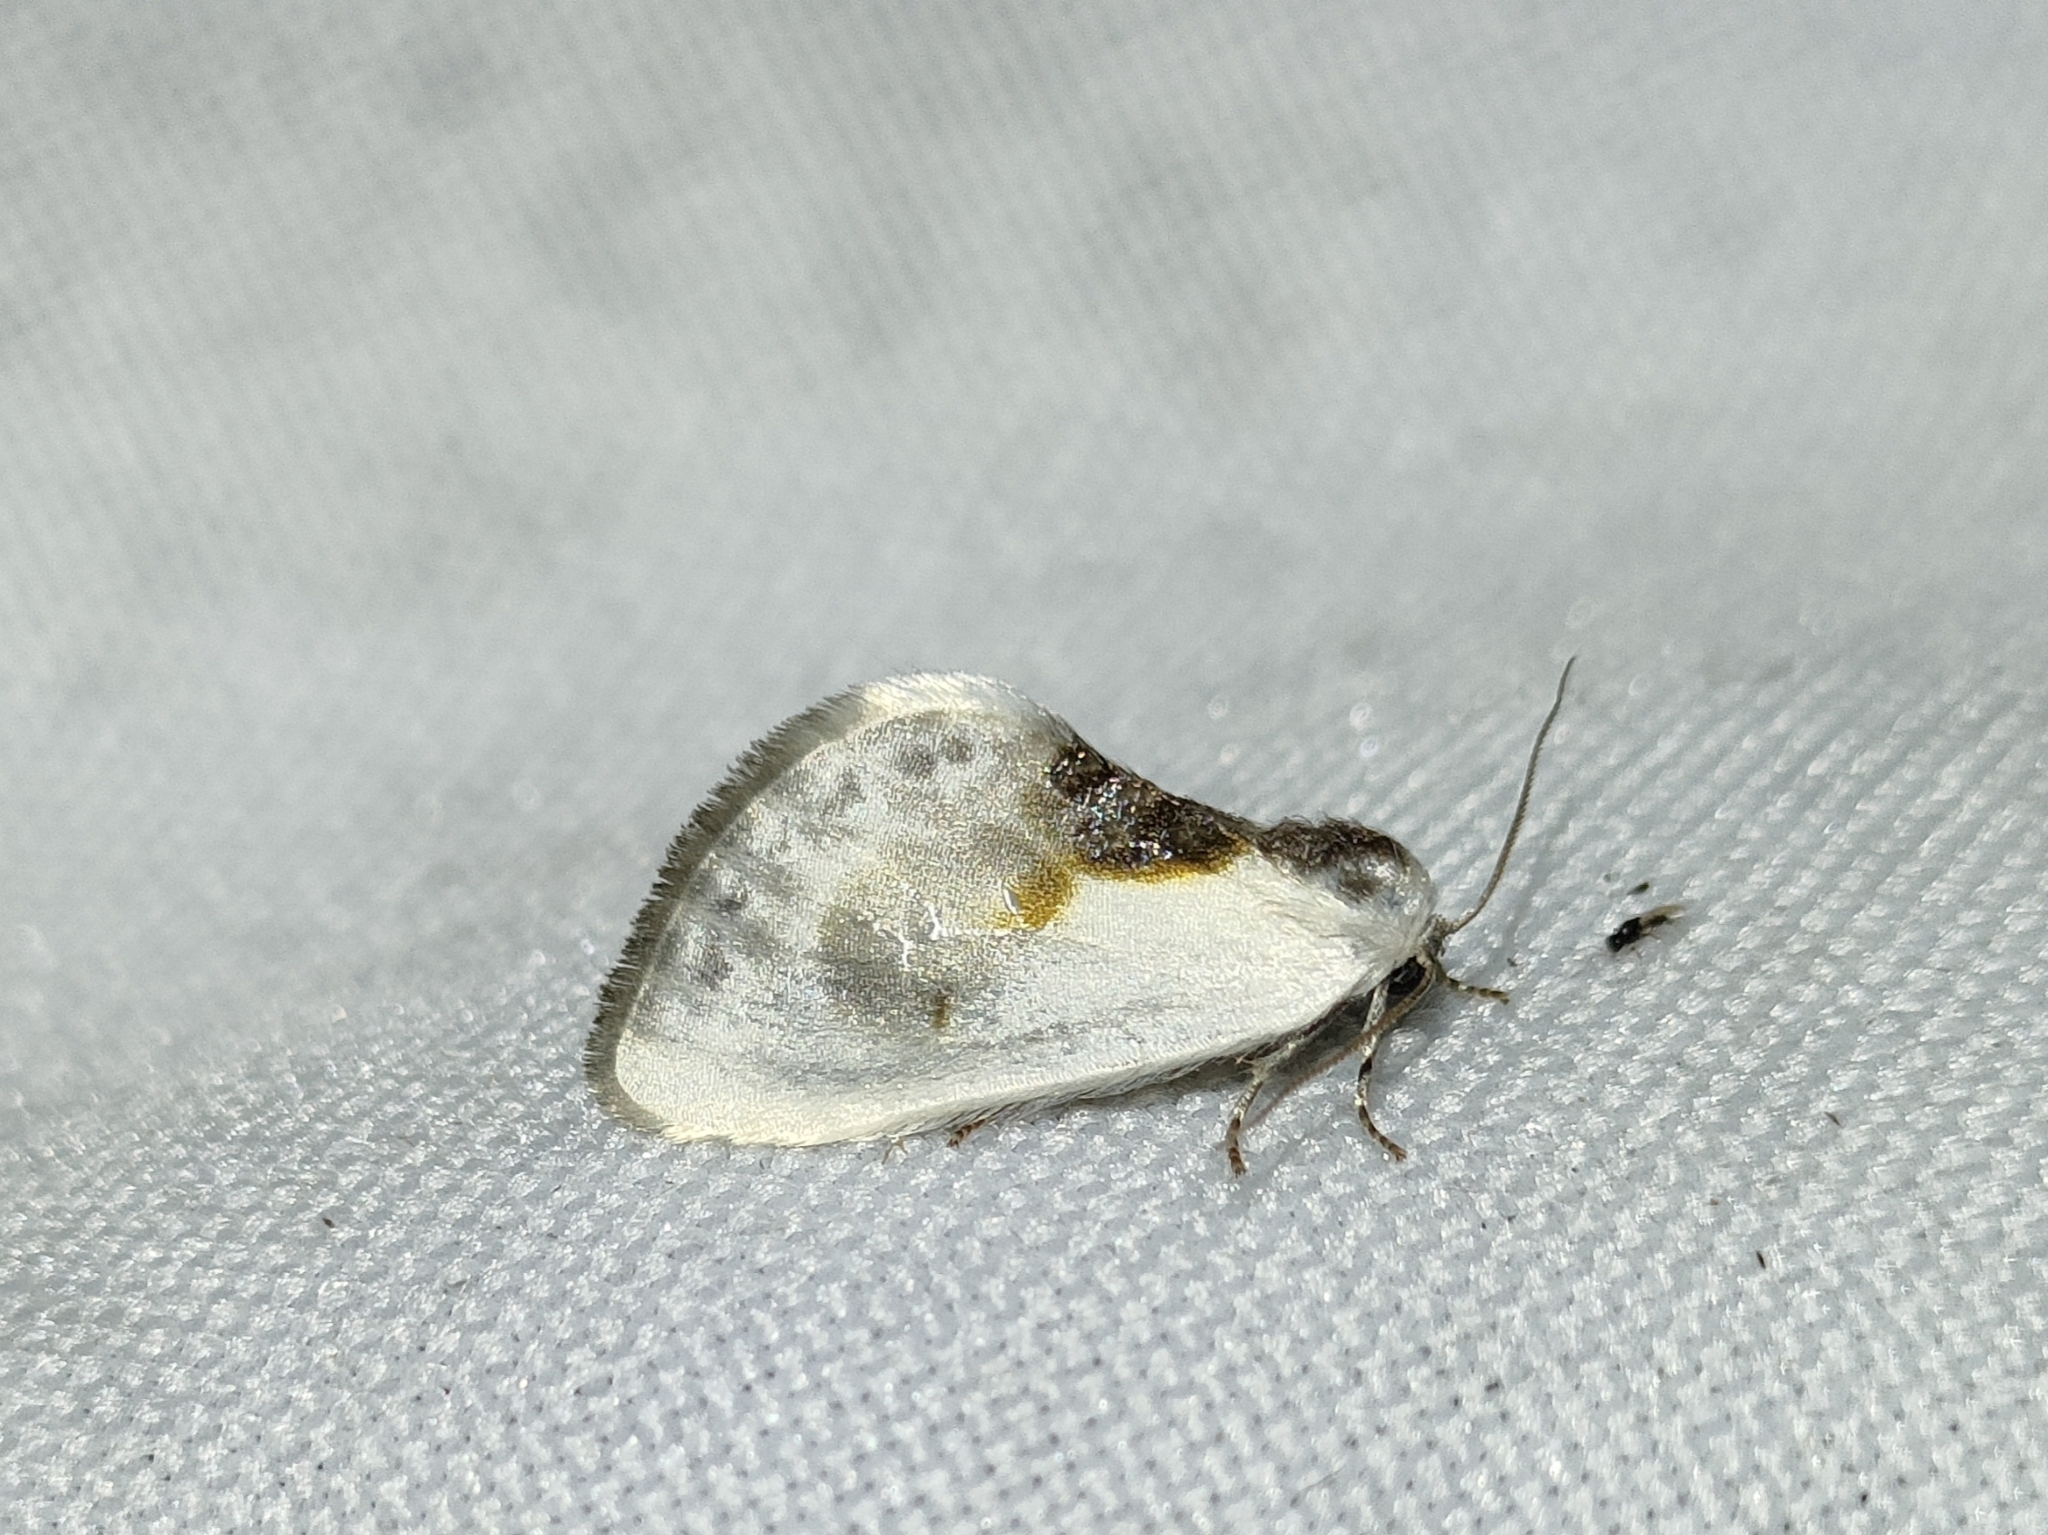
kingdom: Animalia
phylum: Arthropoda
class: Insecta
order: Lepidoptera
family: Drepanidae
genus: Cilix
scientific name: Cilix glaucata
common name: Chinese character
